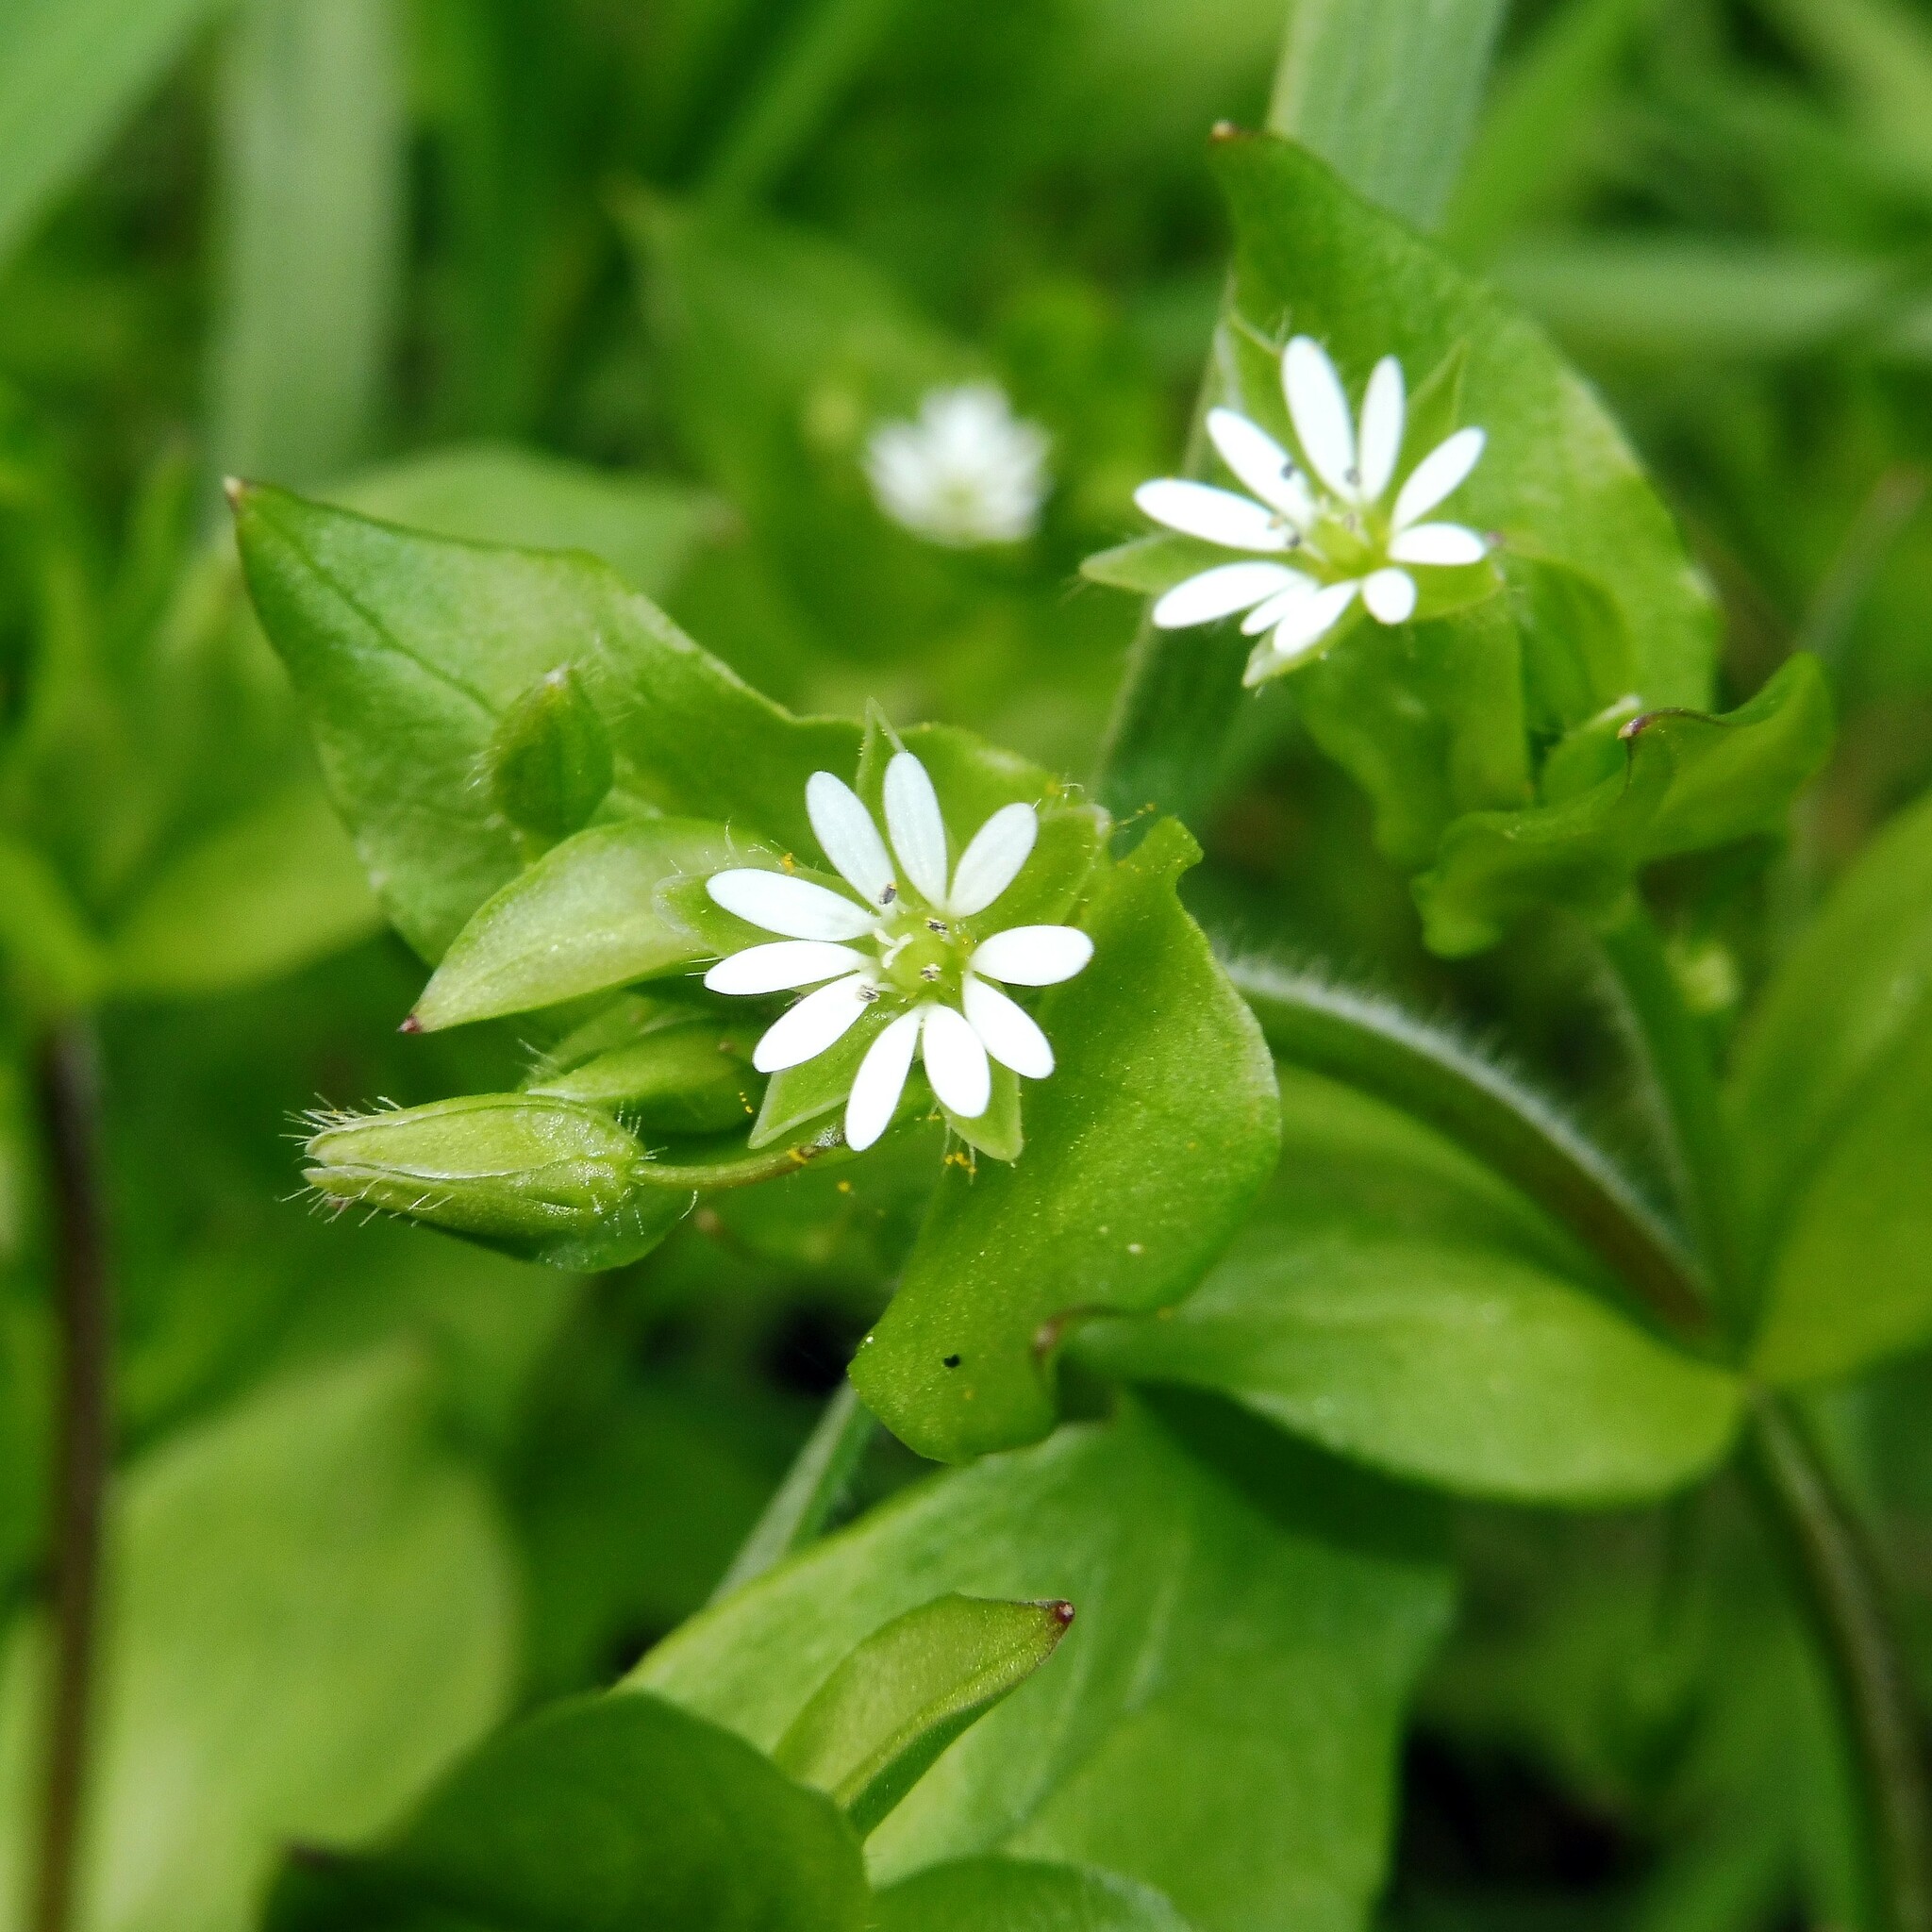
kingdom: Plantae
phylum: Tracheophyta
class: Magnoliopsida
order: Caryophyllales
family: Caryophyllaceae
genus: Stellaria
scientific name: Stellaria media
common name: Common chickweed
